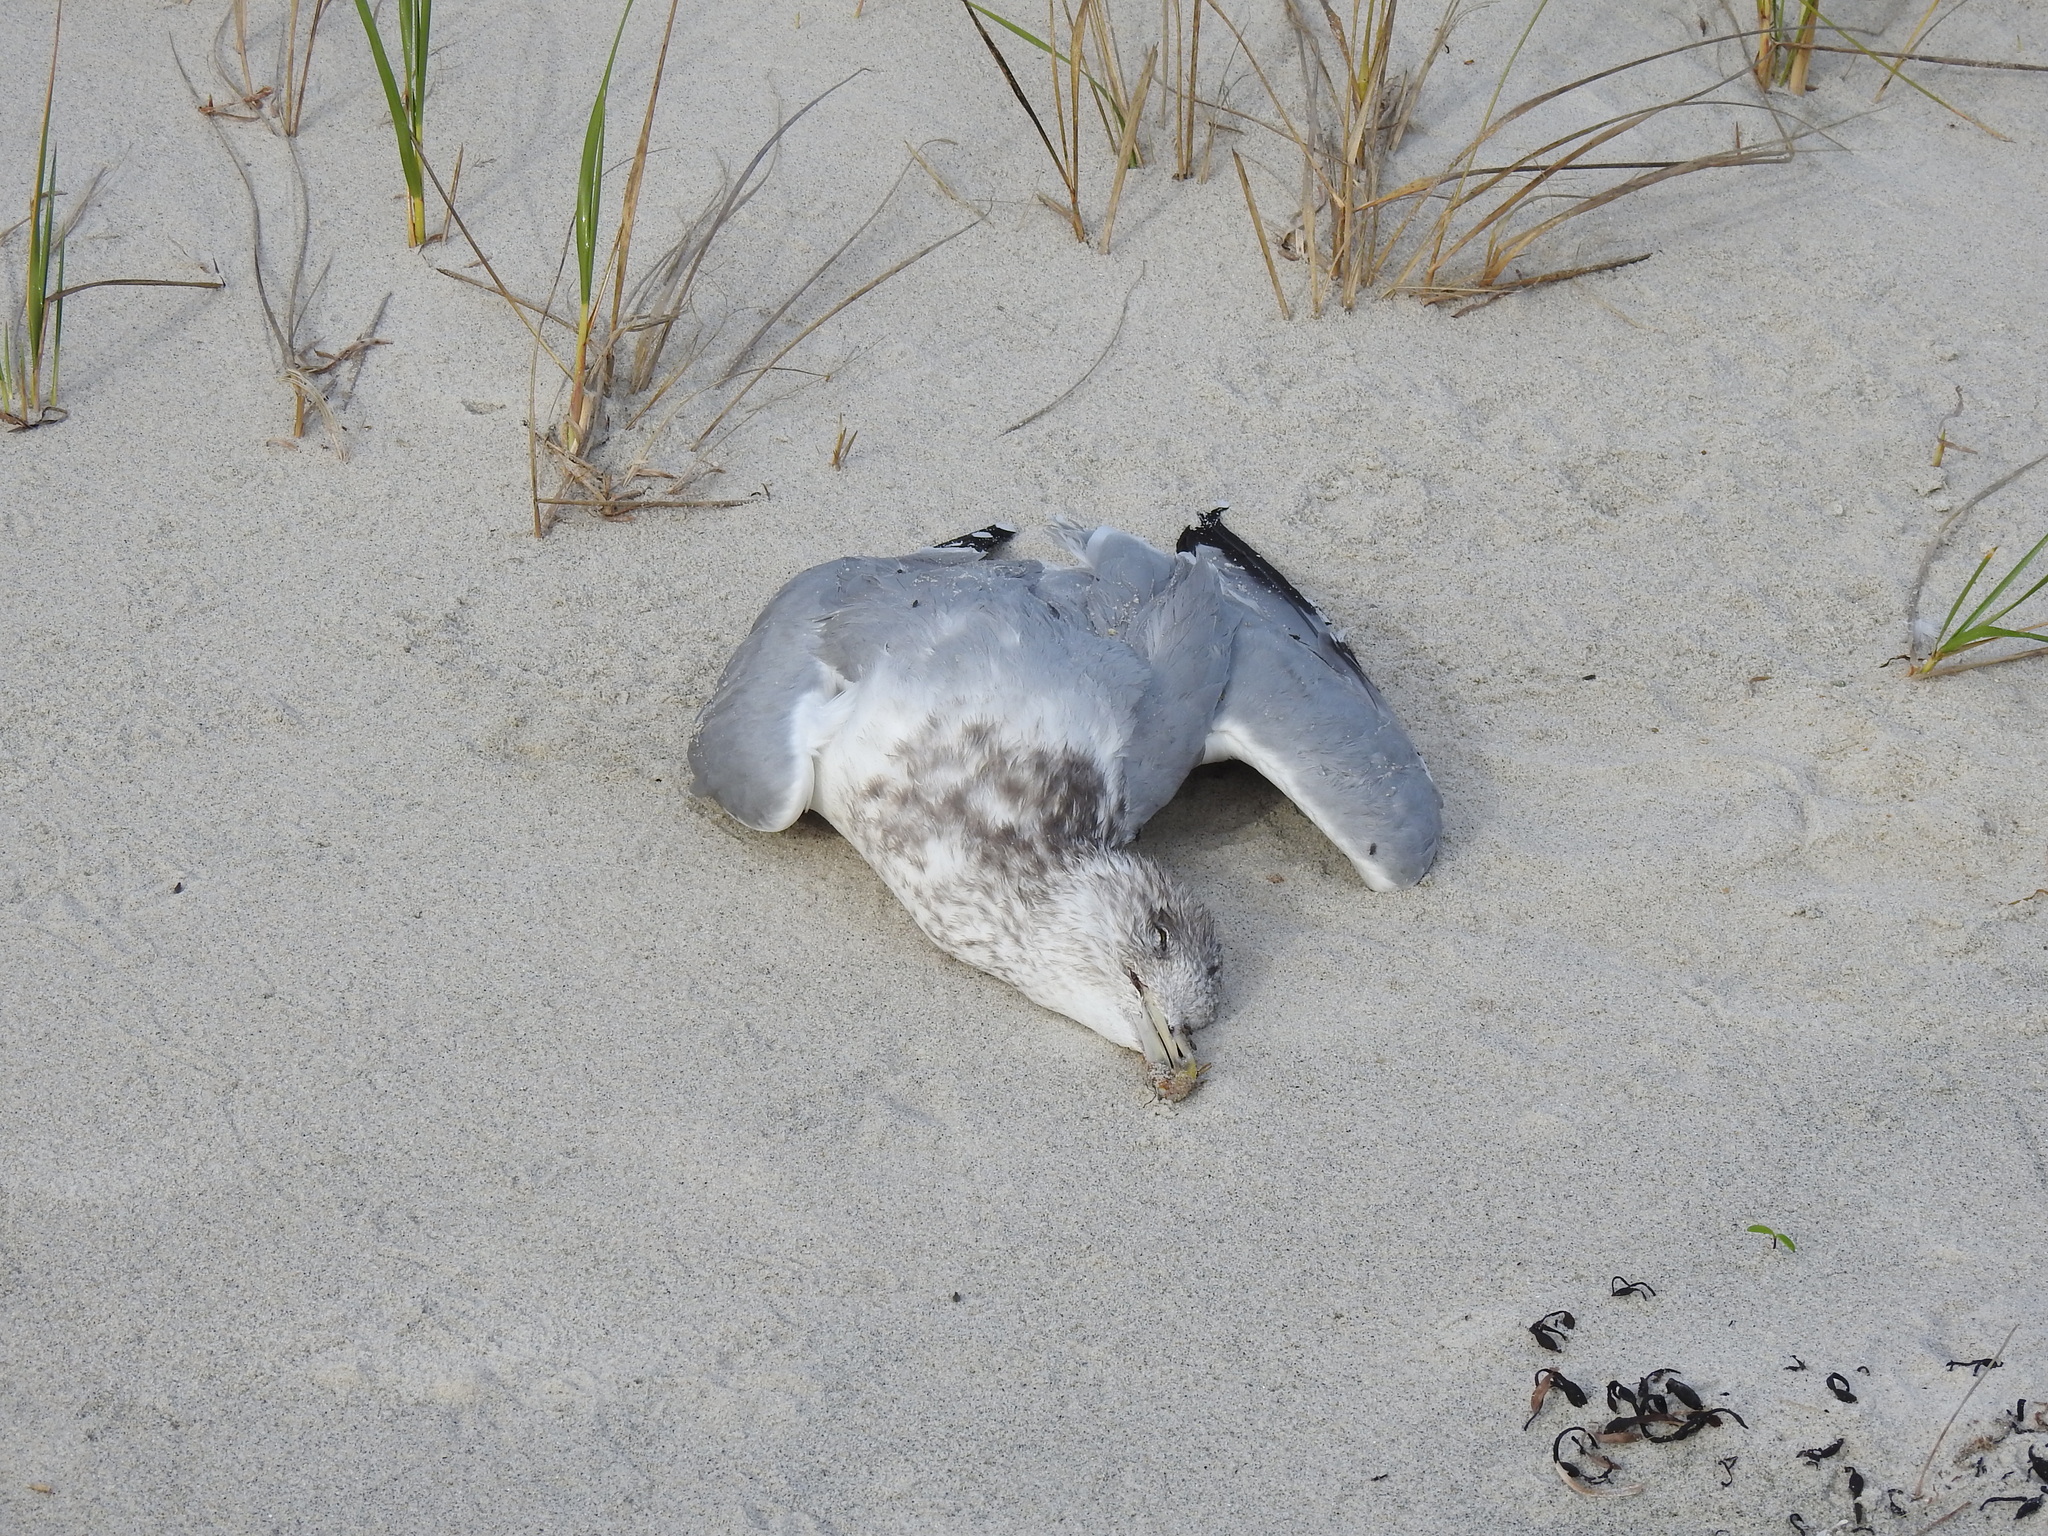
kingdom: Animalia
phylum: Chordata
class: Aves
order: Charadriiformes
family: Laridae
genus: Larus
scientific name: Larus argentatus
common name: Herring gull
